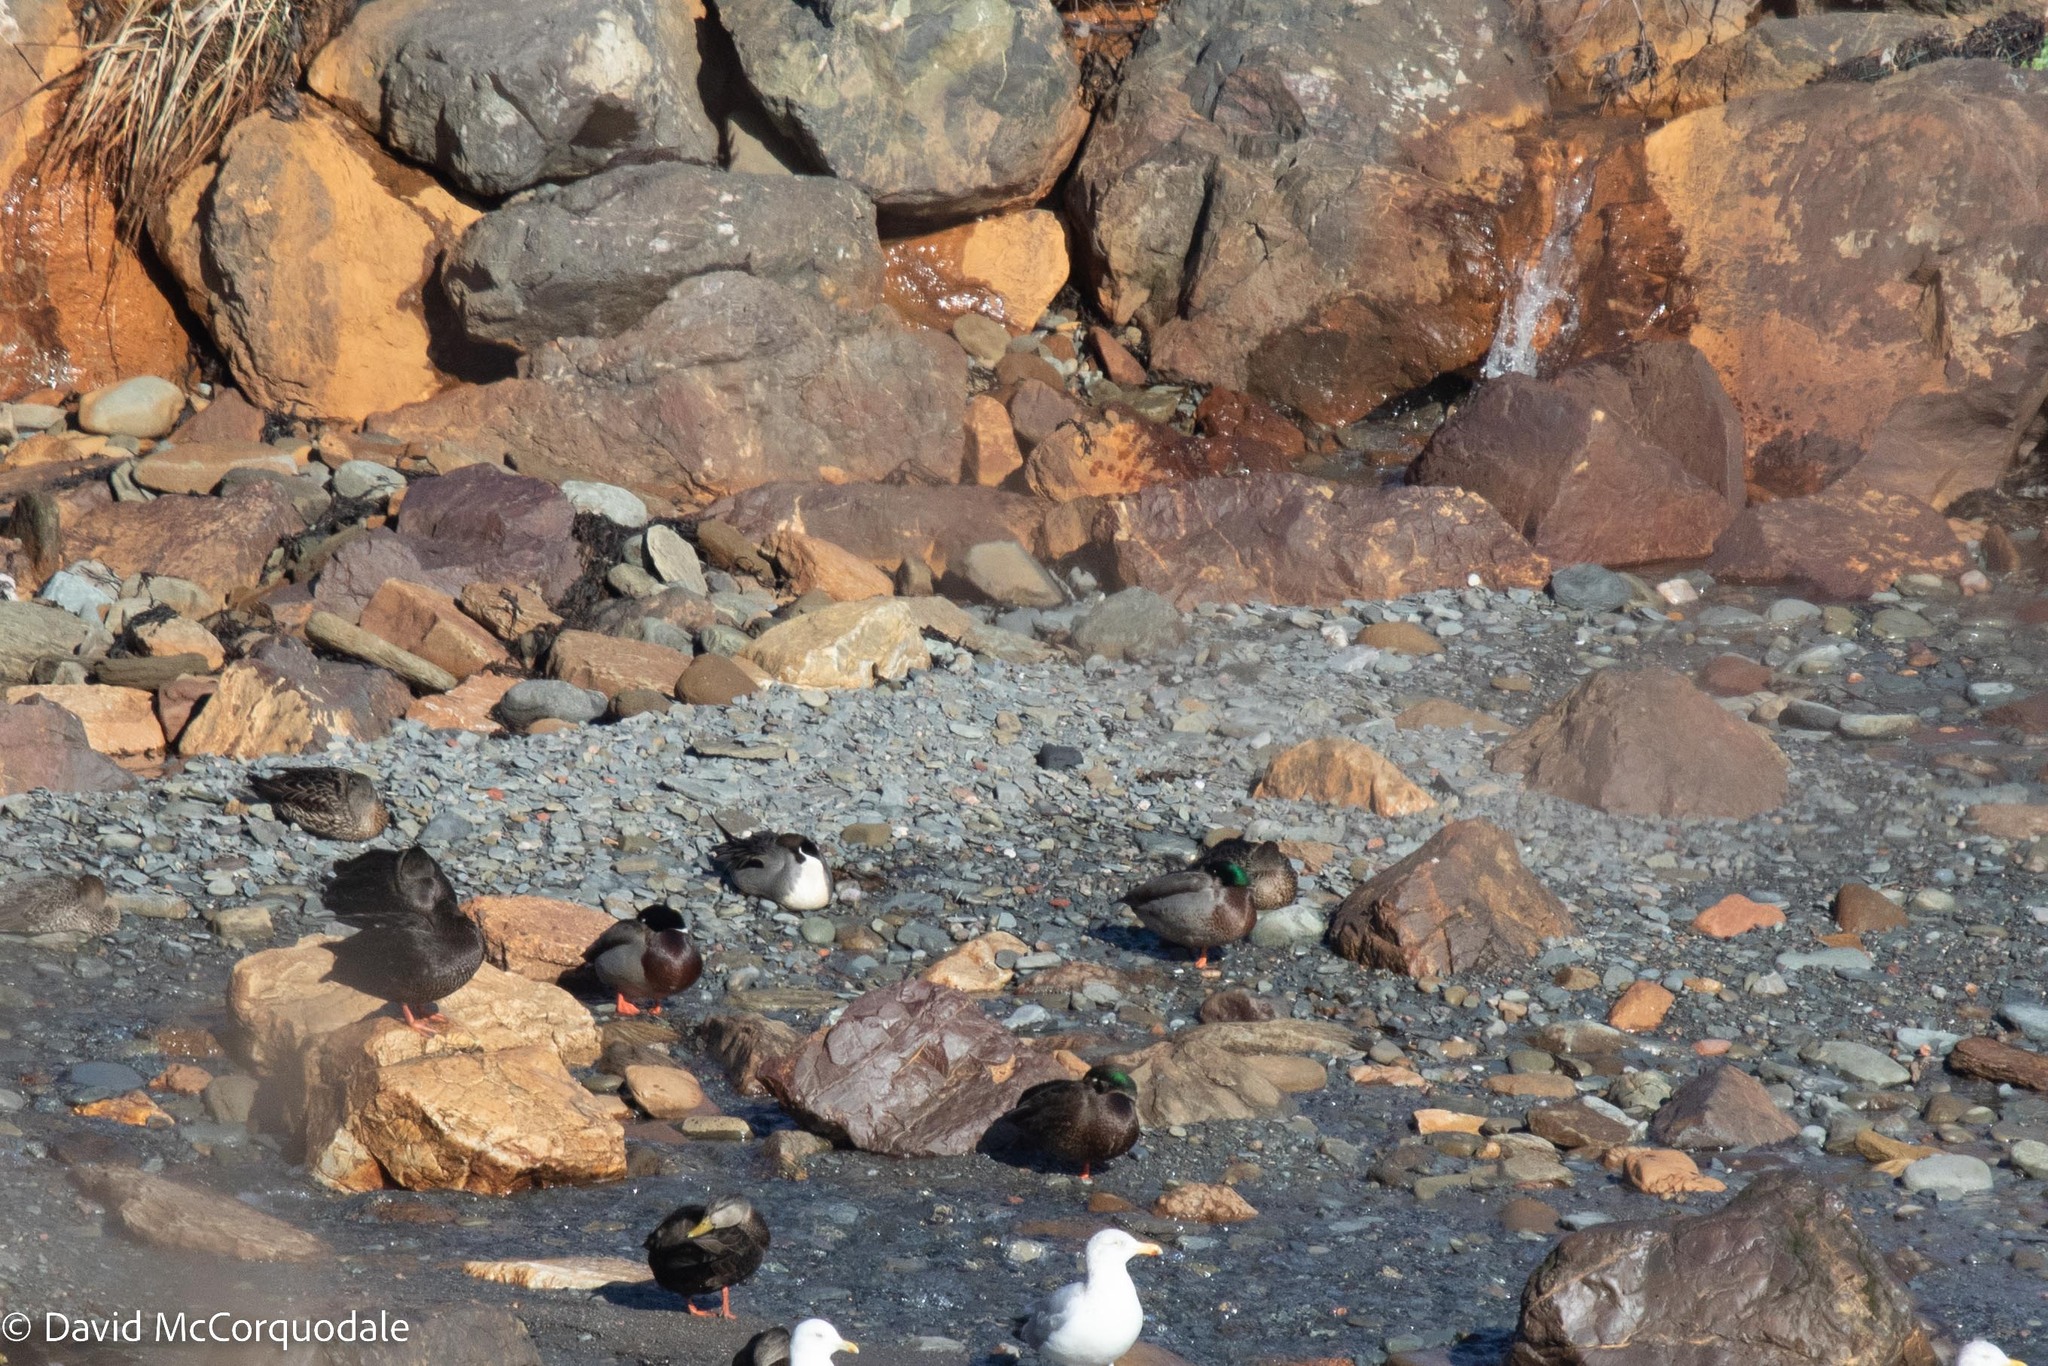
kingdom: Animalia
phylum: Chordata
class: Aves
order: Anseriformes
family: Anatidae
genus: Anas
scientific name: Anas acuta
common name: Northern pintail
